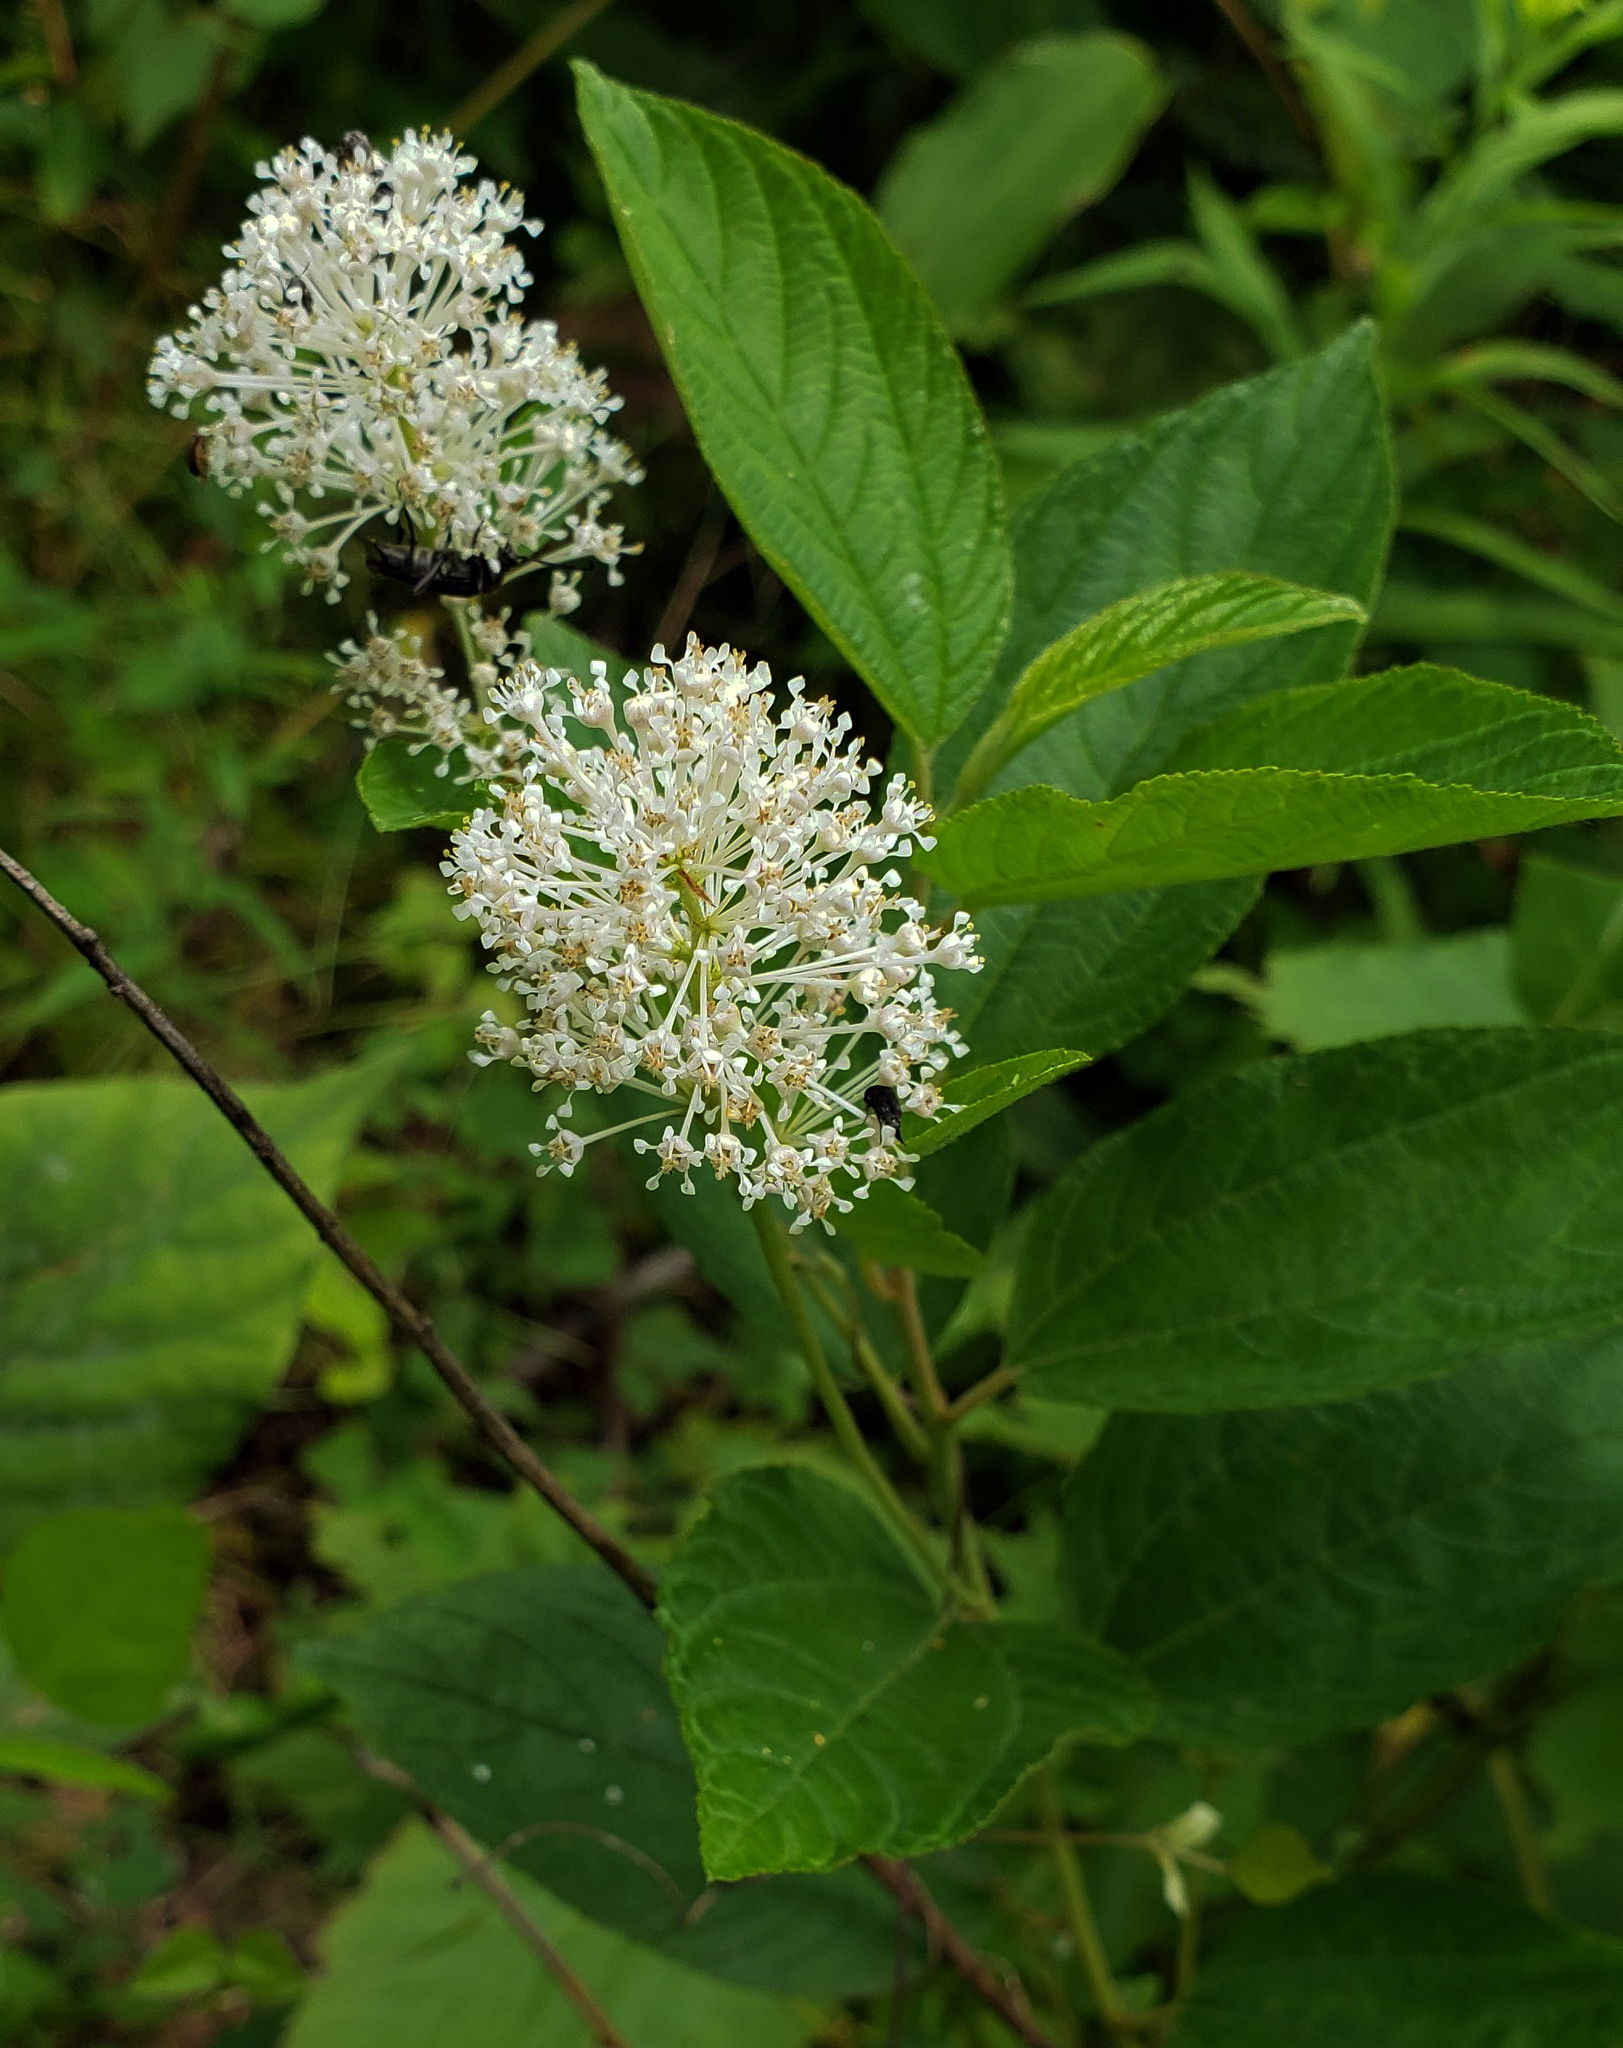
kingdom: Plantae
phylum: Tracheophyta
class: Magnoliopsida
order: Rosales
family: Rhamnaceae
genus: Ceanothus
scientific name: Ceanothus americanus
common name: Redroot
